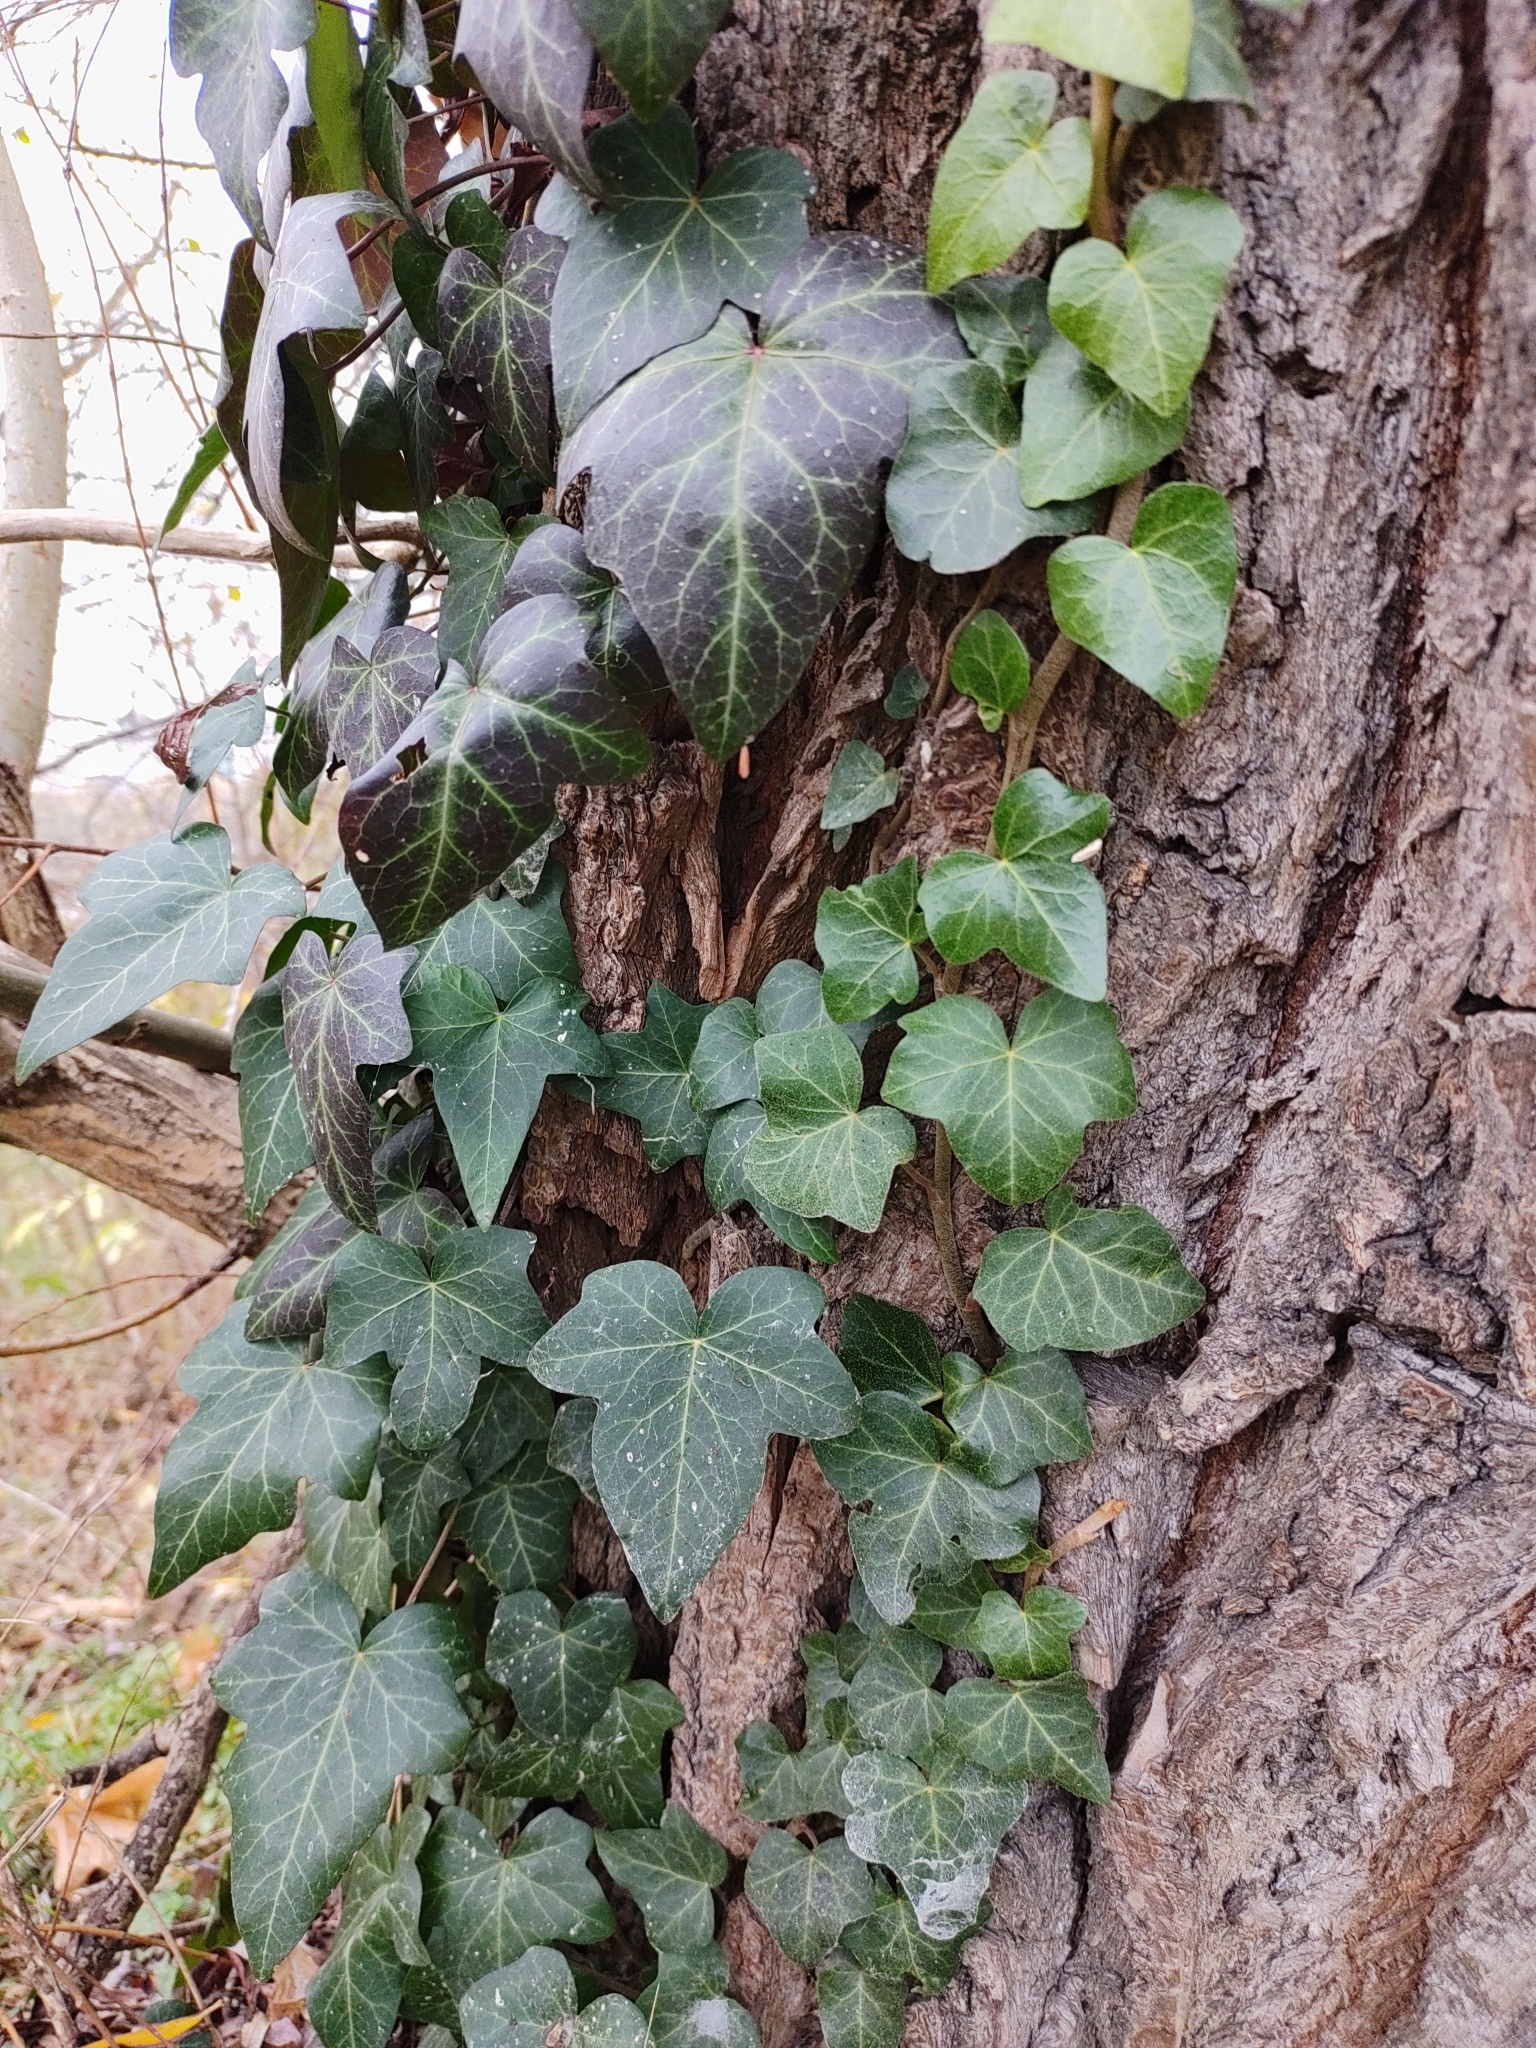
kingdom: Plantae
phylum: Tracheophyta
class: Magnoliopsida
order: Apiales
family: Araliaceae
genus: Hedera
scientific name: Hedera helix
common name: Ivy
